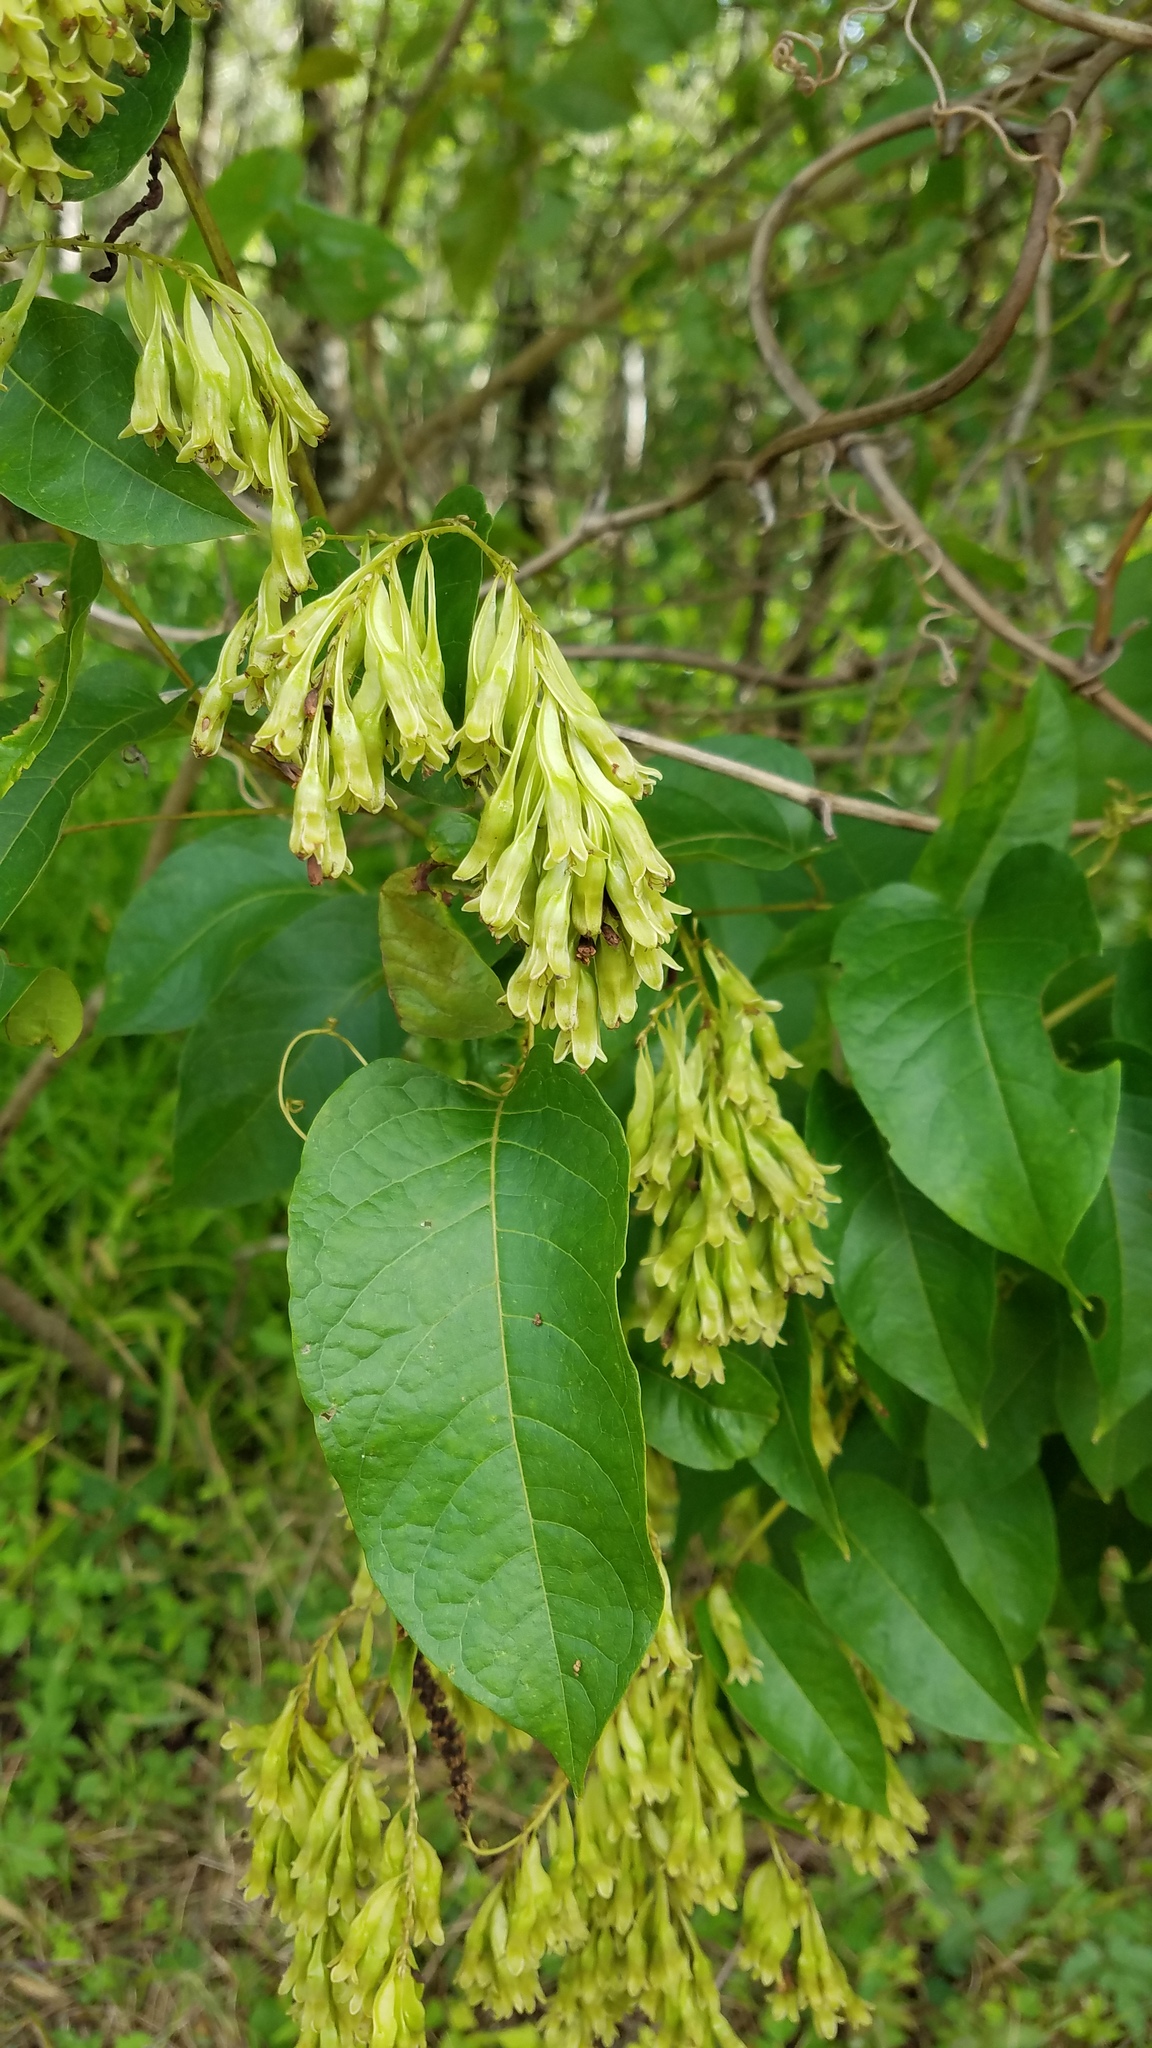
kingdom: Plantae
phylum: Tracheophyta
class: Magnoliopsida
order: Caryophyllales
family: Polygonaceae
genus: Brunnichia
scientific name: Brunnichia ovata
